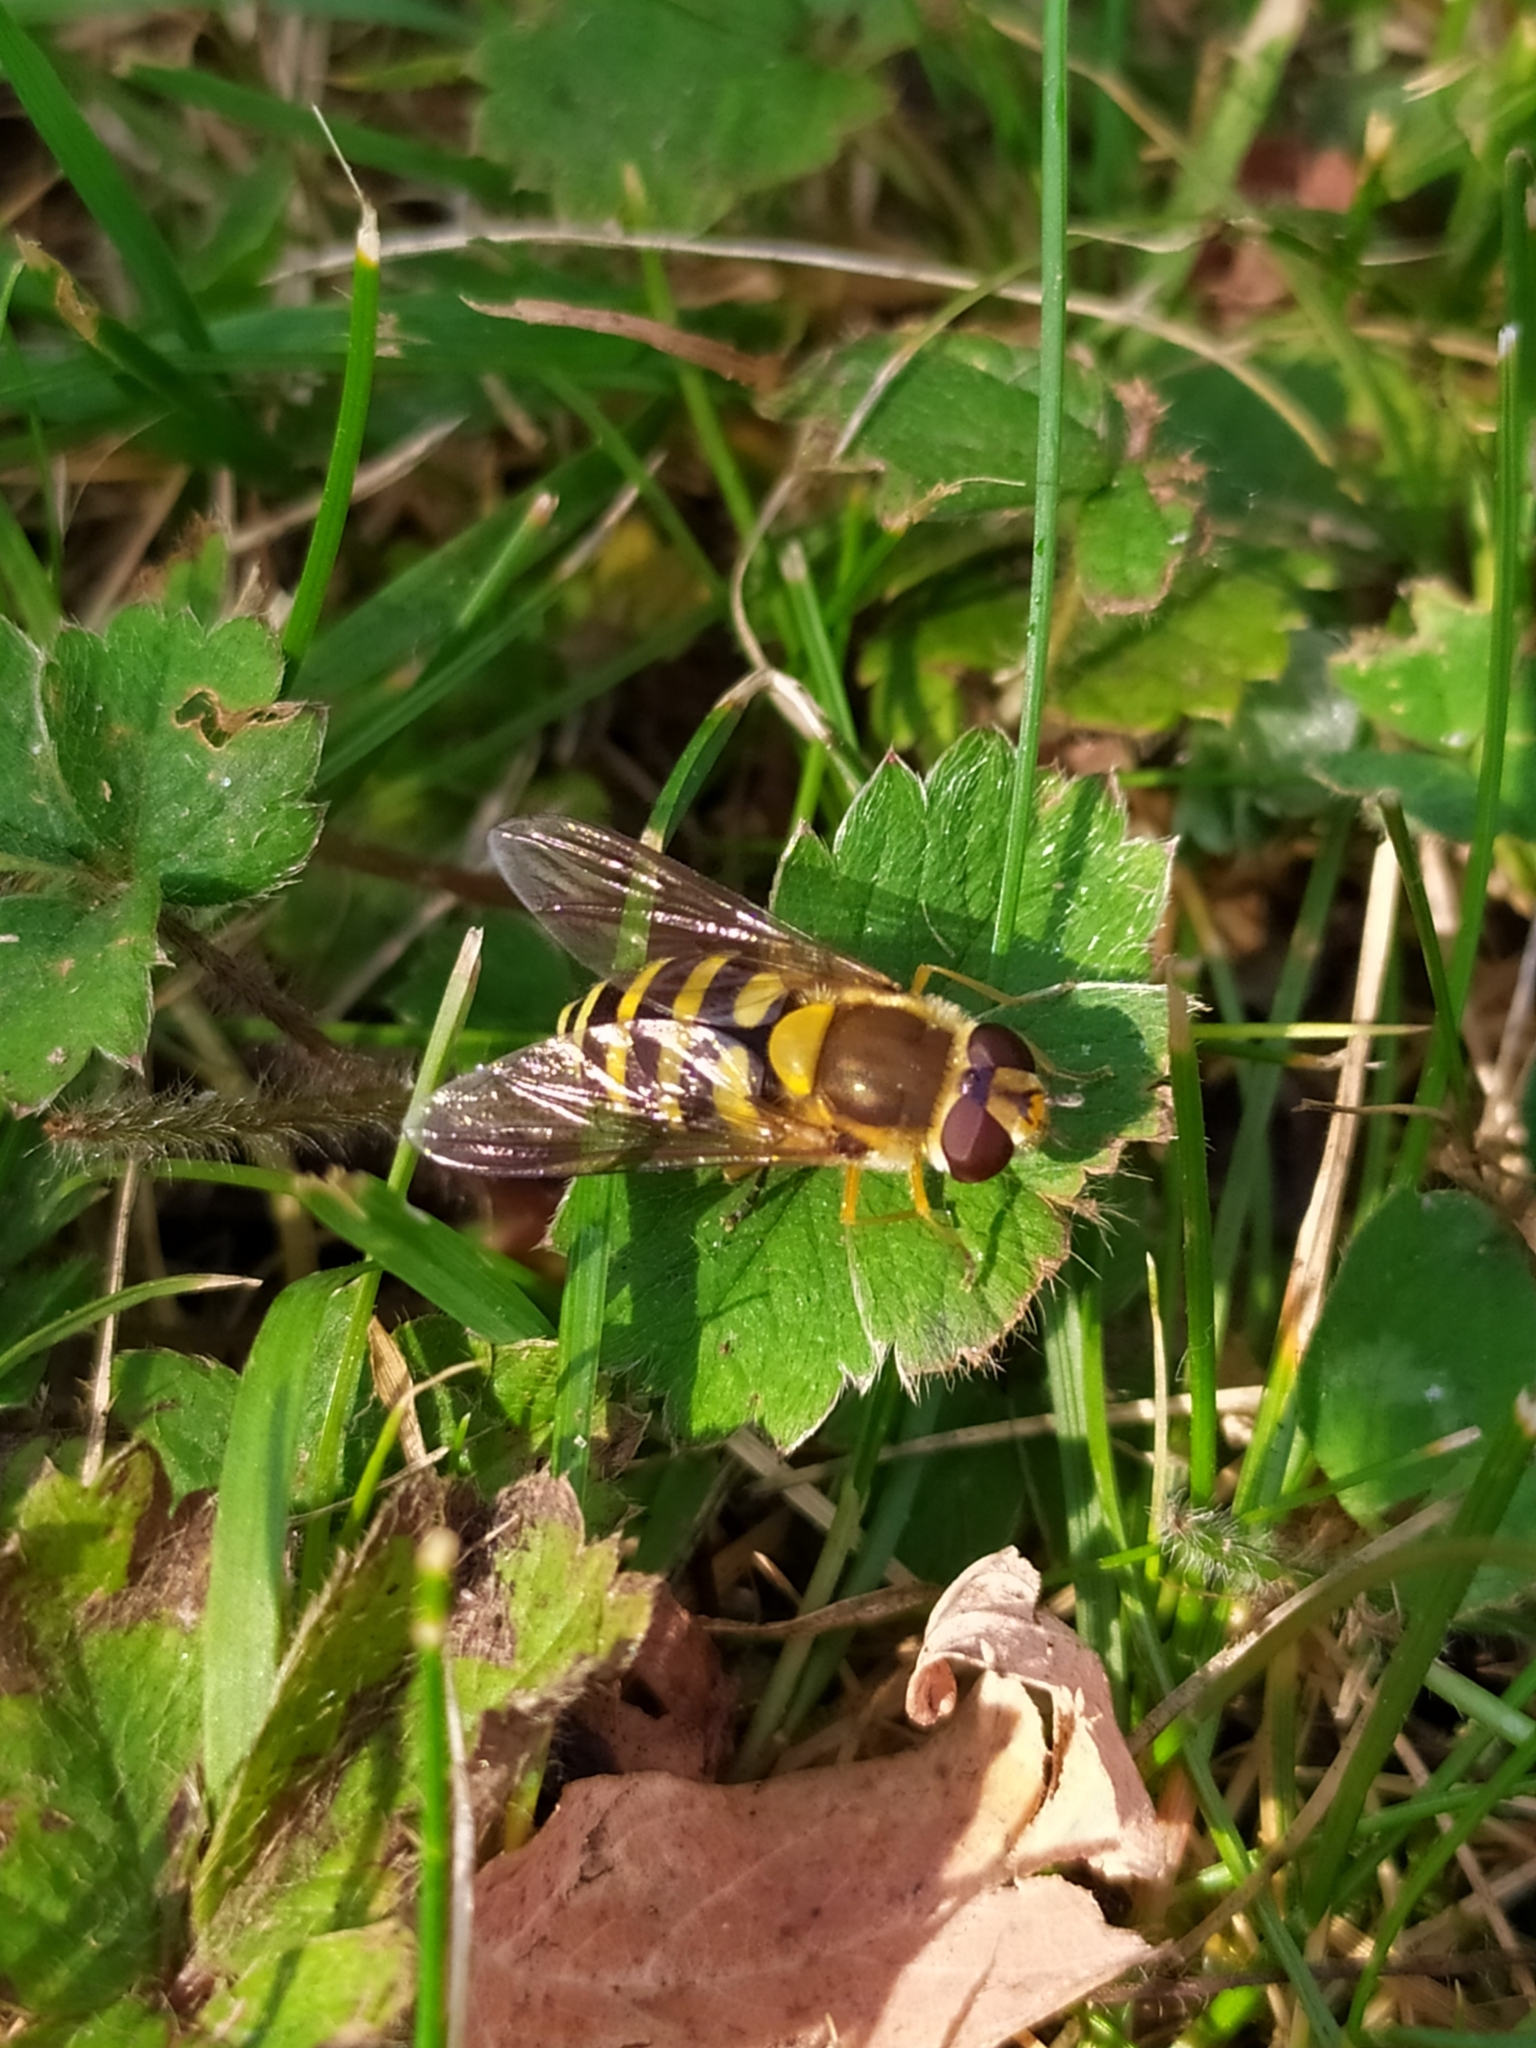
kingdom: Animalia
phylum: Arthropoda
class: Insecta
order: Diptera
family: Syrphidae
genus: Syrphus
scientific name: Syrphus
